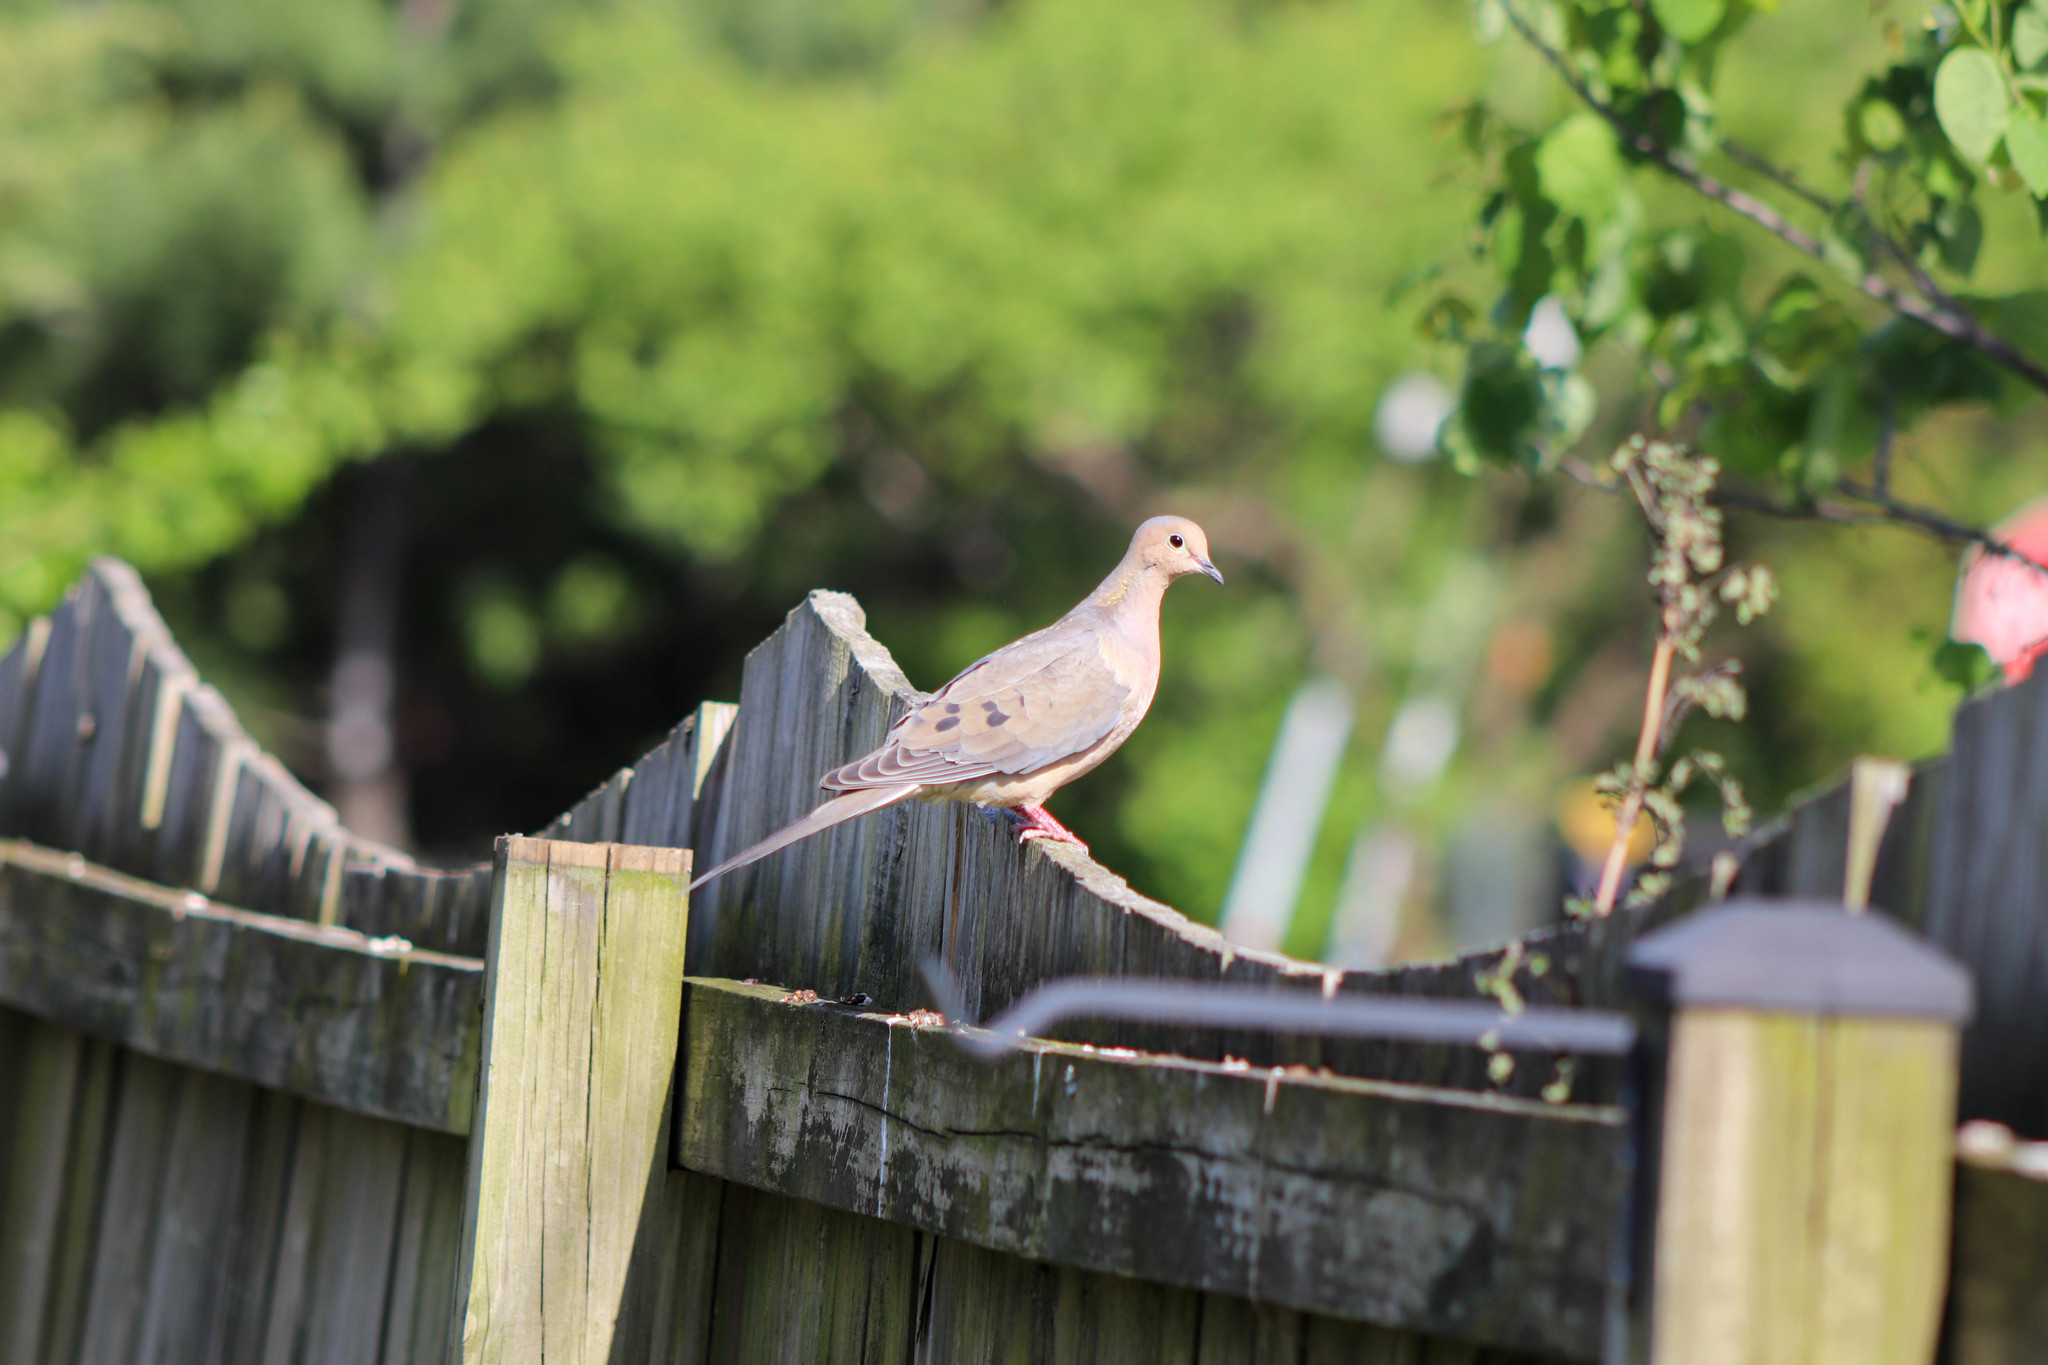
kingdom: Animalia
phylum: Chordata
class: Aves
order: Columbiformes
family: Columbidae
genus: Zenaida
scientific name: Zenaida macroura
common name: Mourning dove
